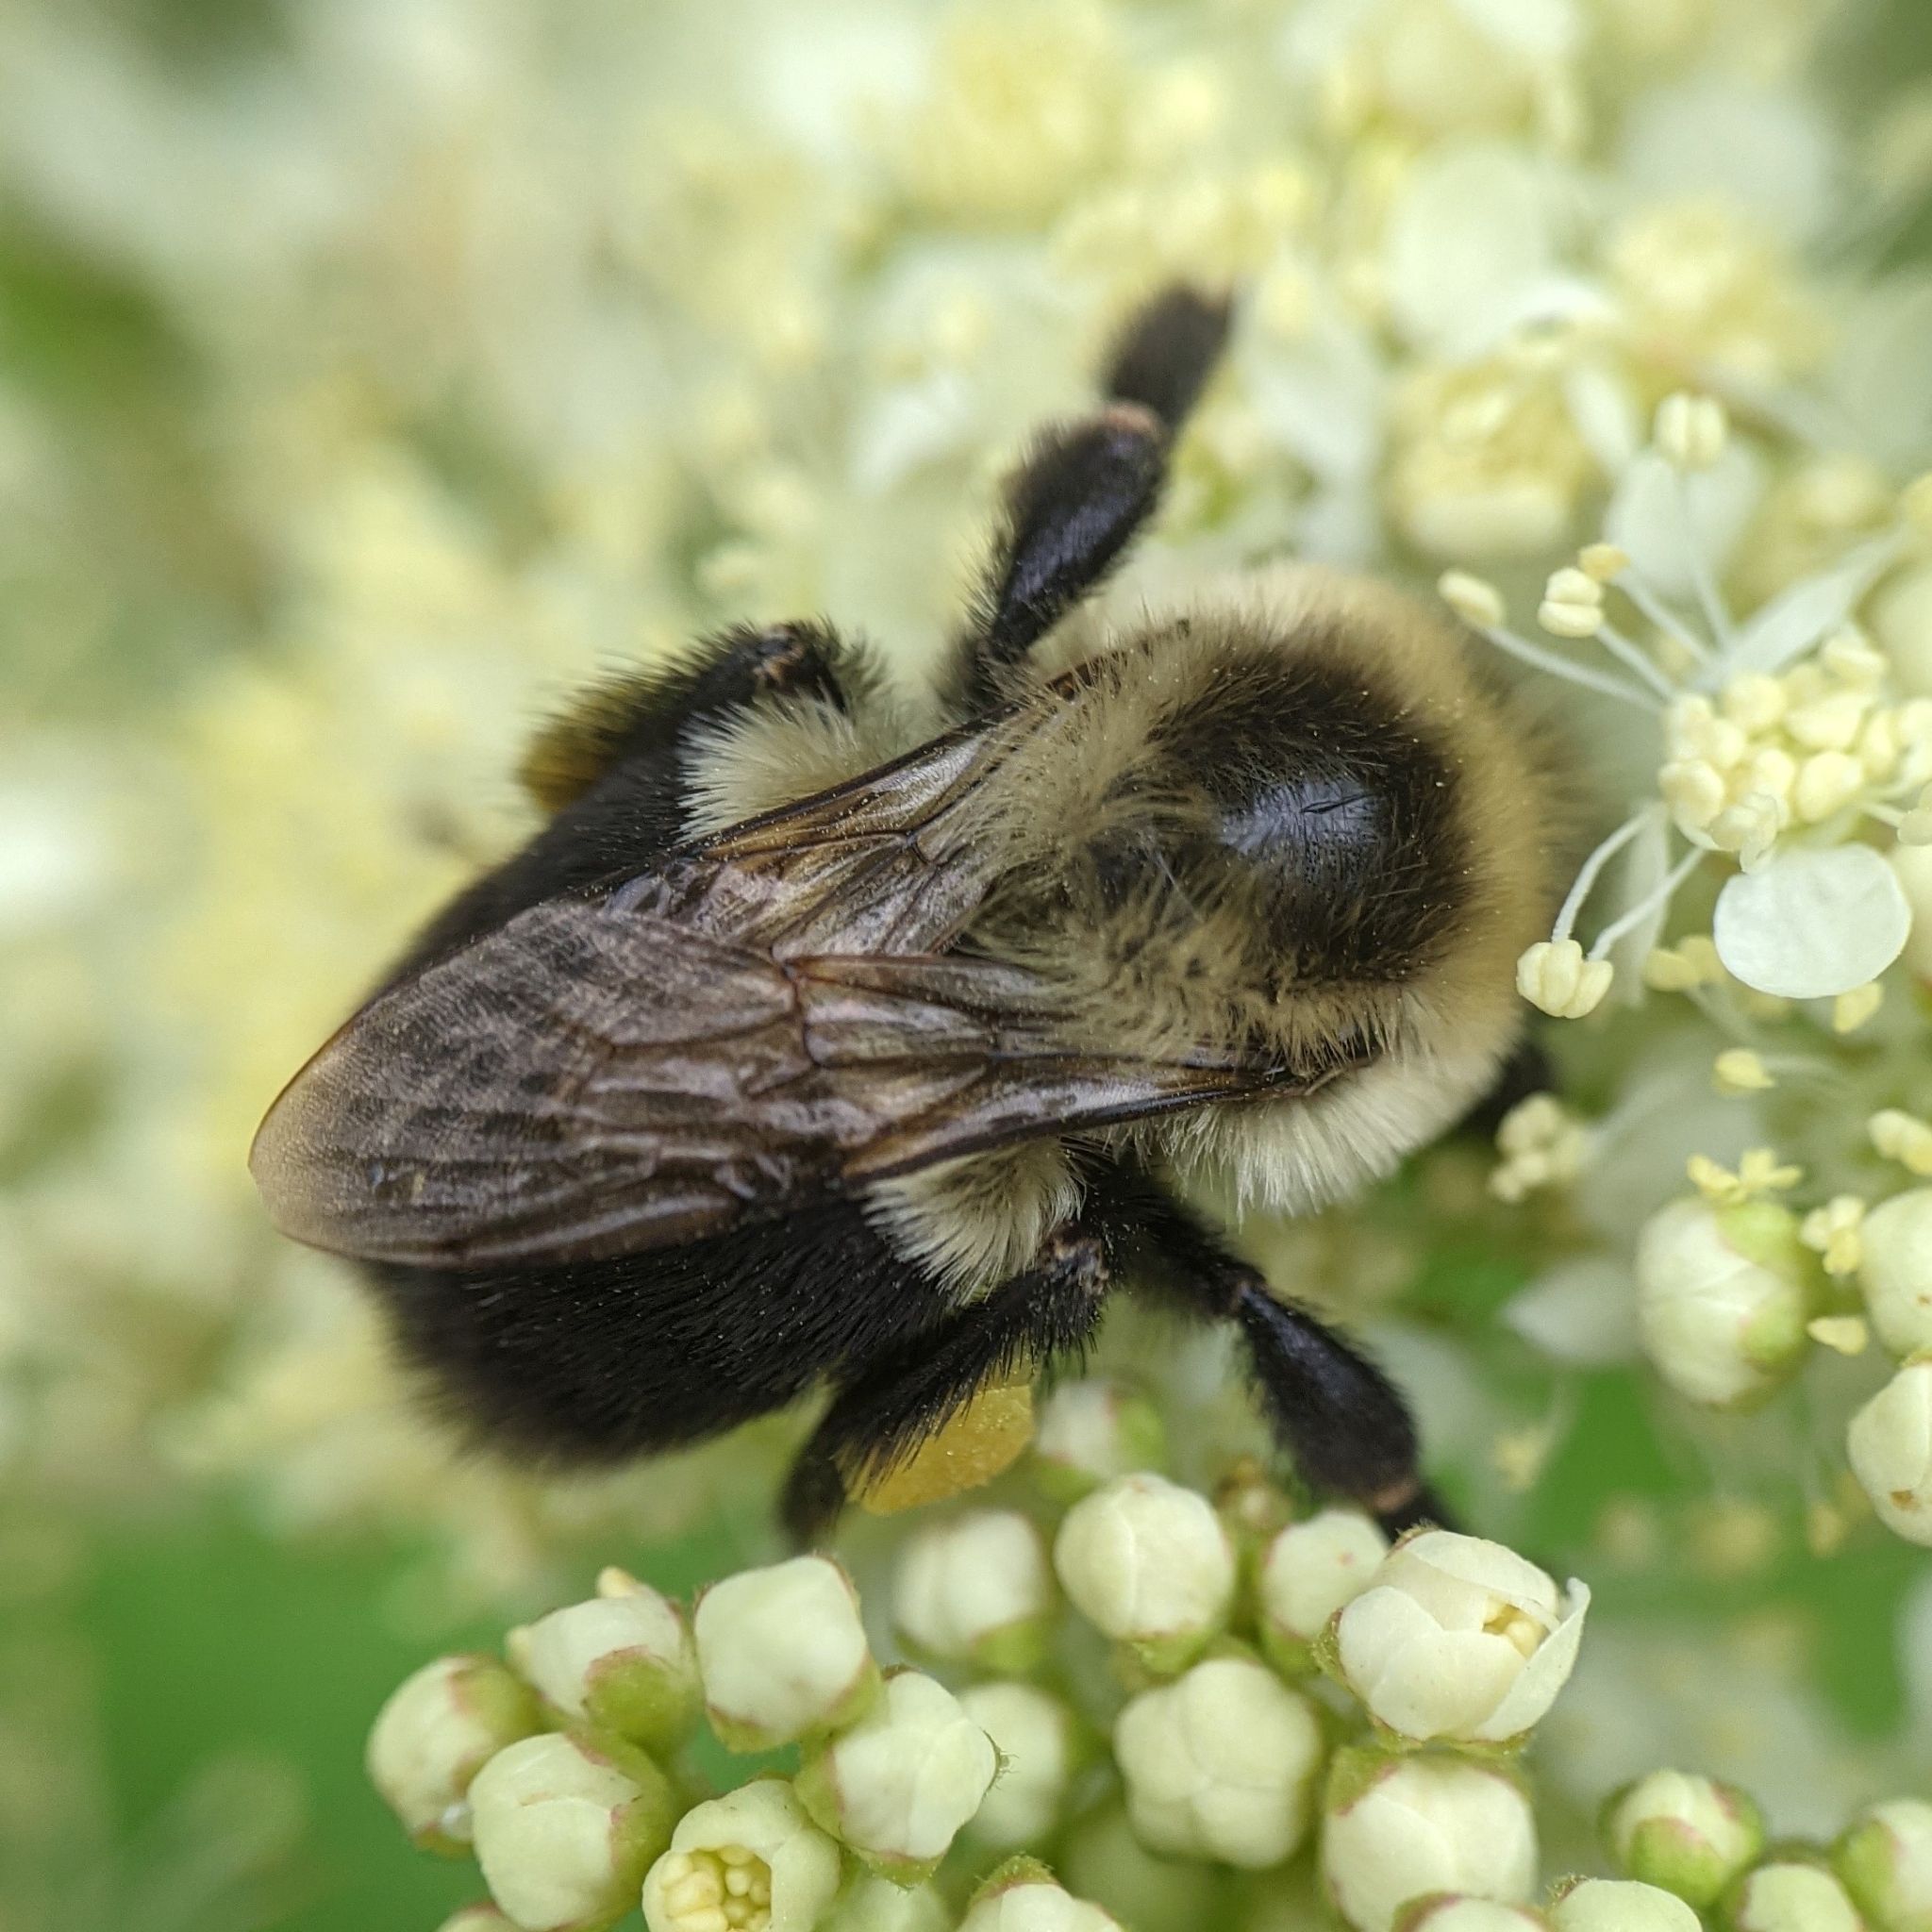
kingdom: Animalia
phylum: Arthropoda
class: Insecta
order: Hymenoptera
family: Apidae
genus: Bombus
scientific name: Bombus impatiens
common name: Common eastern bumble bee
